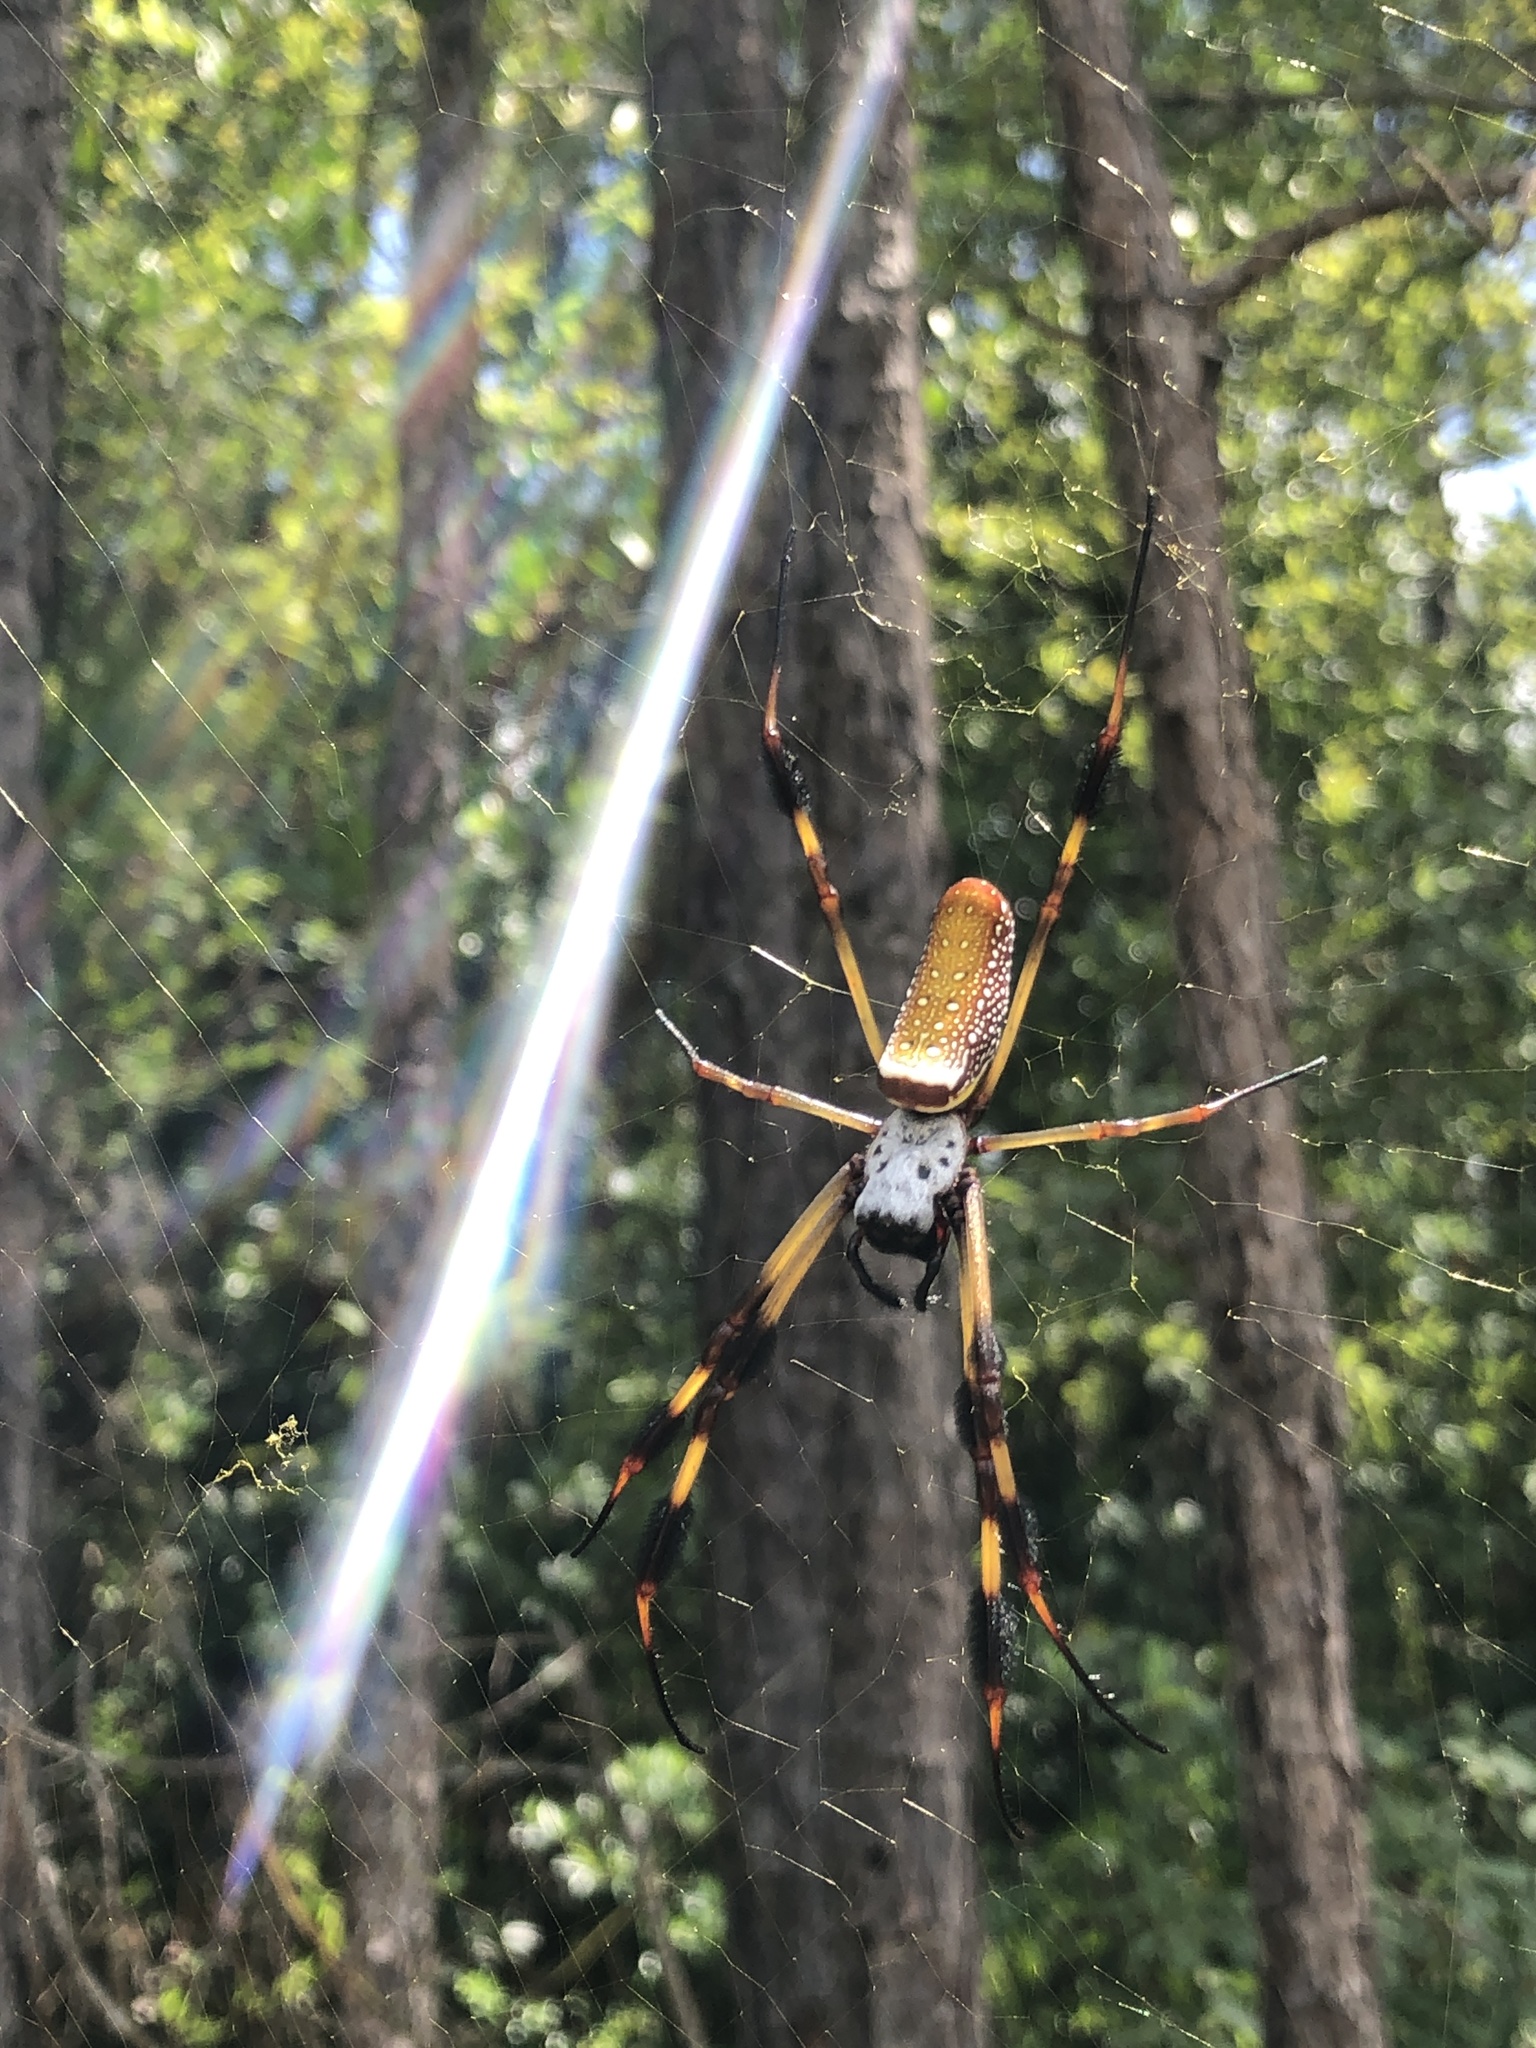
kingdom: Animalia
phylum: Arthropoda
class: Arachnida
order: Araneae
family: Araneidae
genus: Trichonephila
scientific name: Trichonephila clavipes
